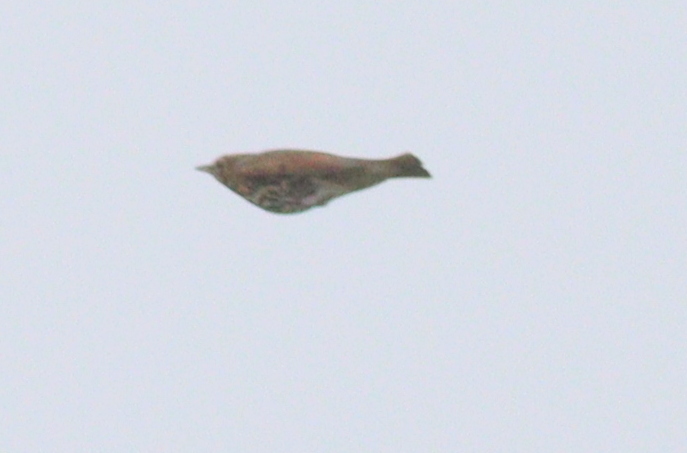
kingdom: Animalia
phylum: Chordata
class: Aves
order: Passeriformes
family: Turdidae
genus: Turdus
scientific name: Turdus philomelos
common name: Song thrush
